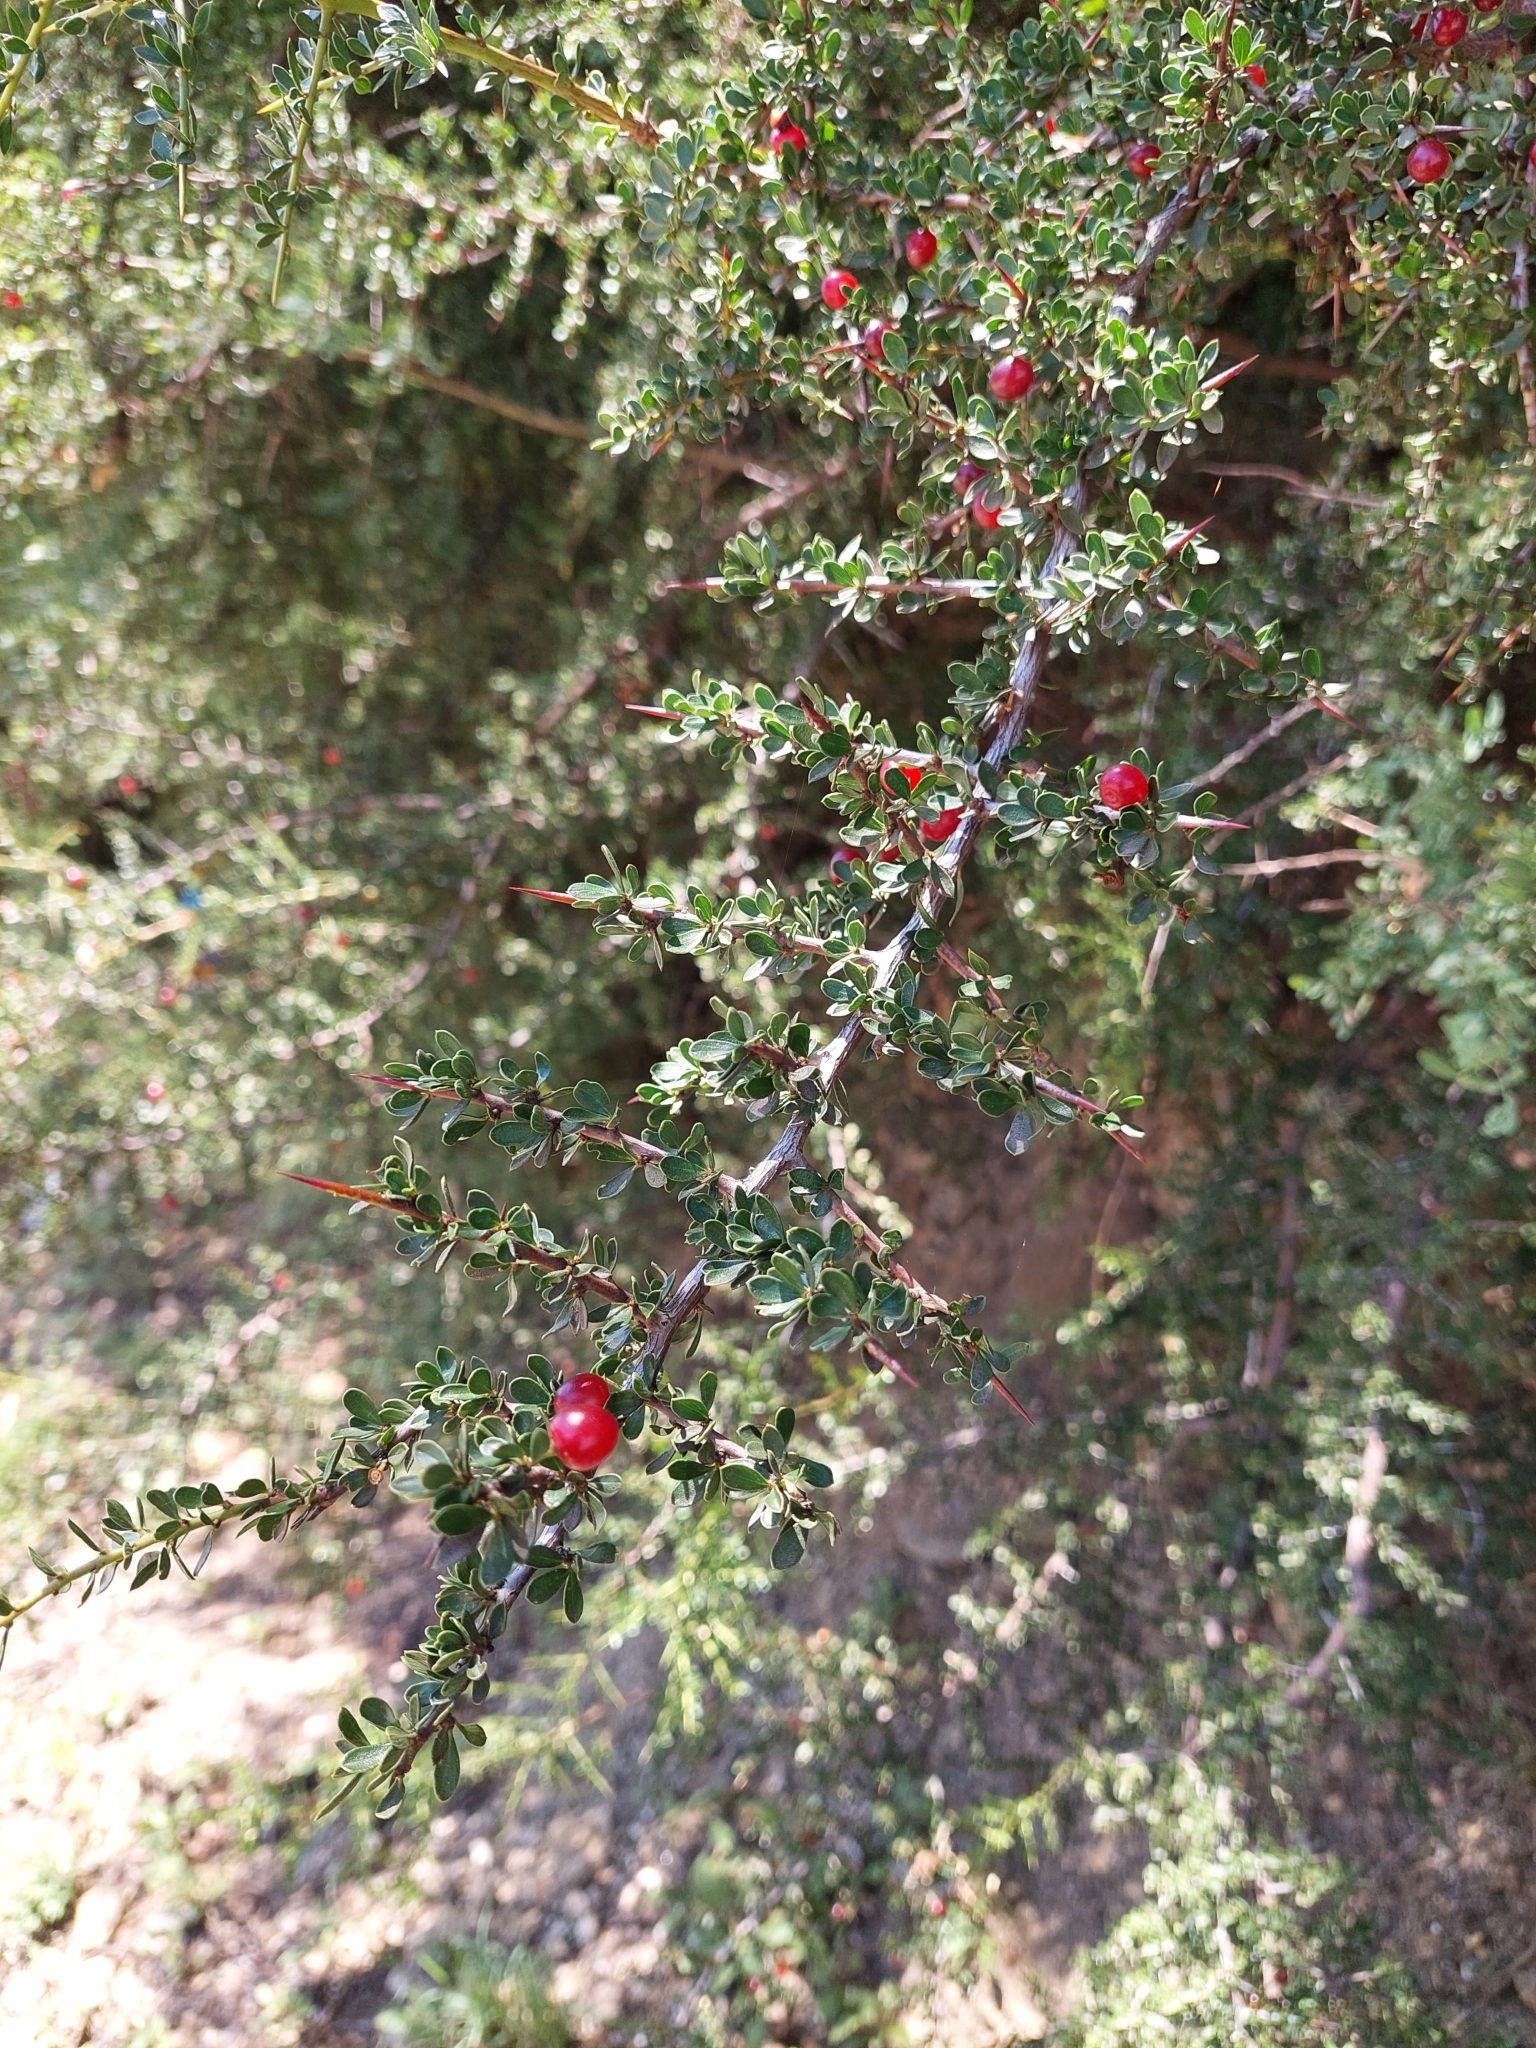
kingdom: Plantae
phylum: Tracheophyta
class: Magnoliopsida
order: Rosales
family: Rhamnaceae
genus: Condalia
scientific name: Condalia microphylla
